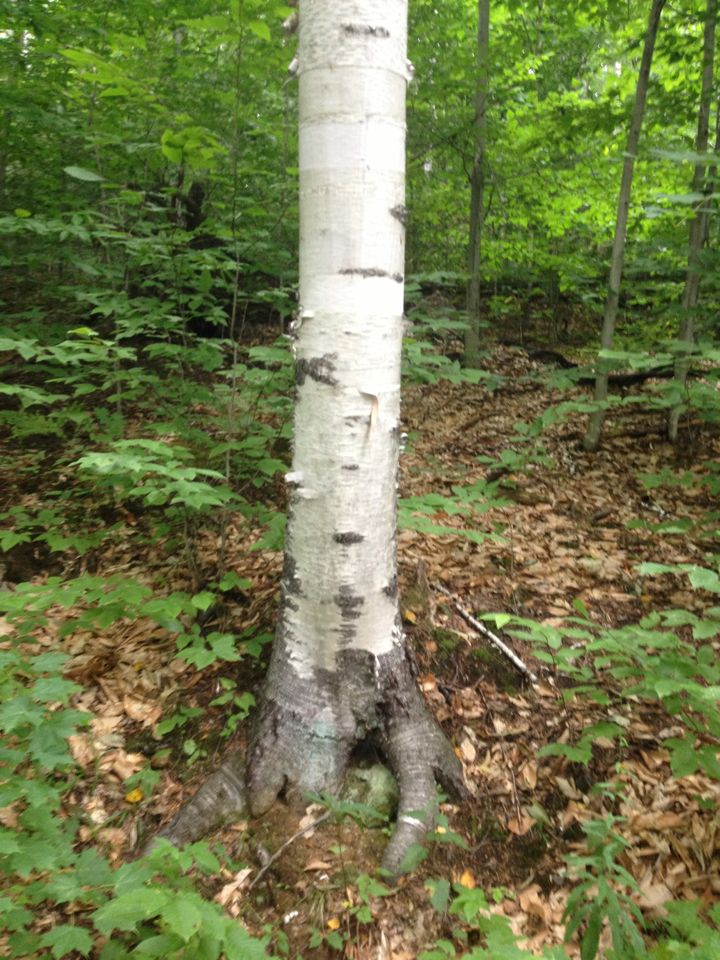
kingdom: Plantae
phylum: Tracheophyta
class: Magnoliopsida
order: Fagales
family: Betulaceae
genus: Betula
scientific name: Betula papyrifera
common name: Paper birch
